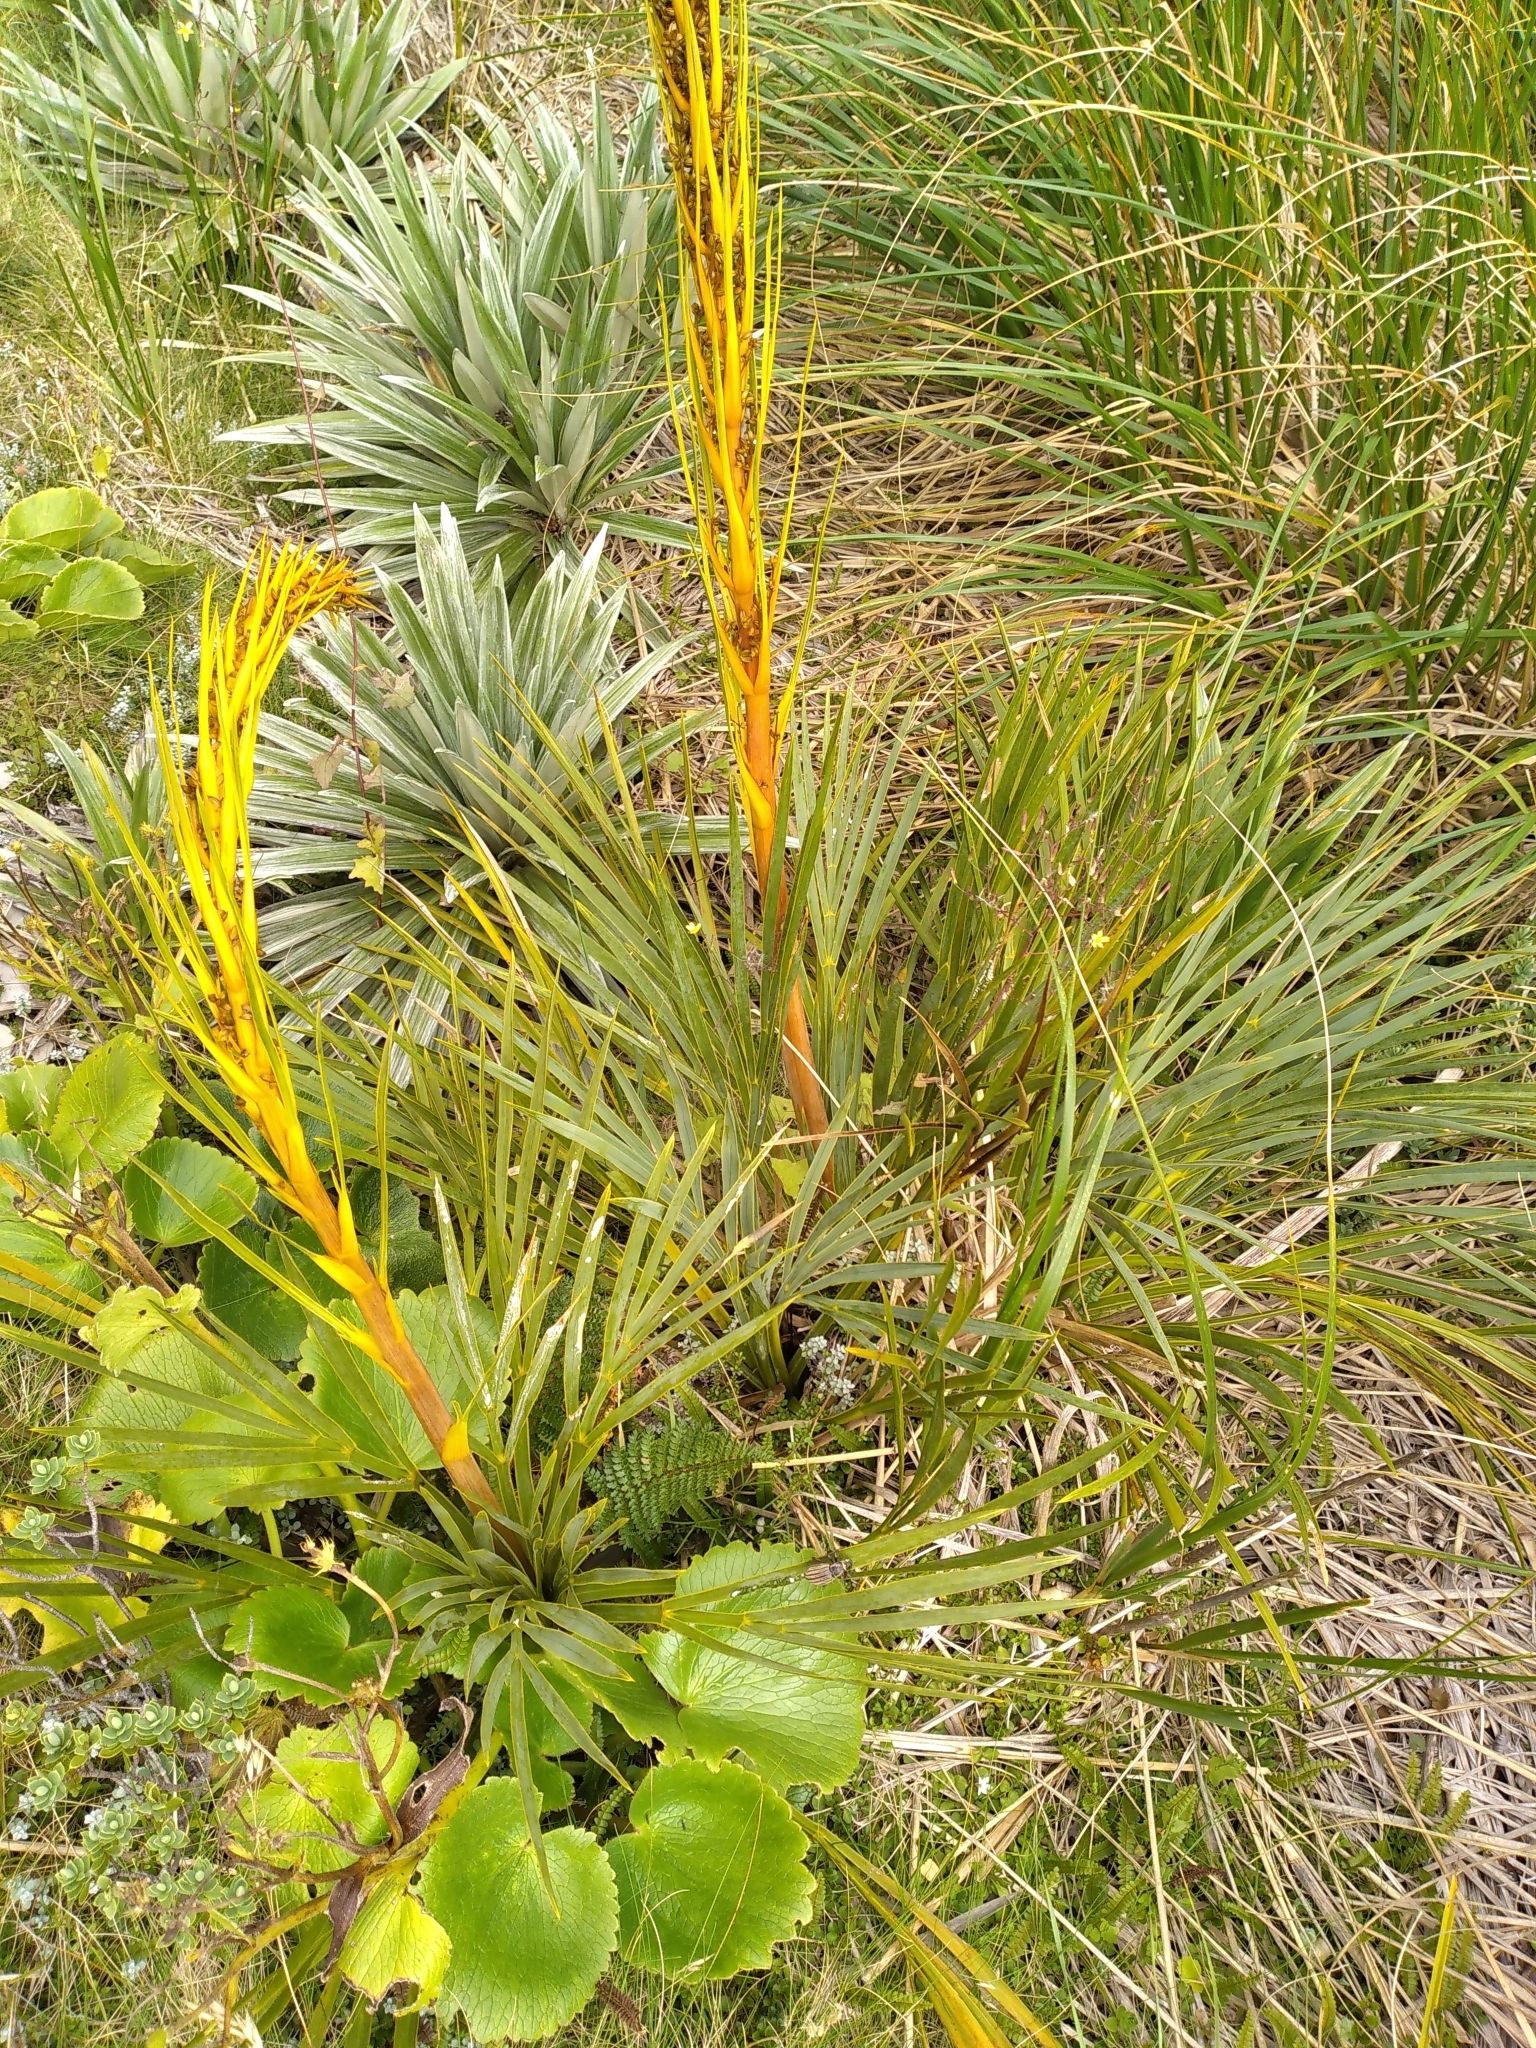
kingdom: Animalia
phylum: Arthropoda
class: Insecta
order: Coleoptera
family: Curculionidae
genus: Lyperobius
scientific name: Lyperobius clarkei
